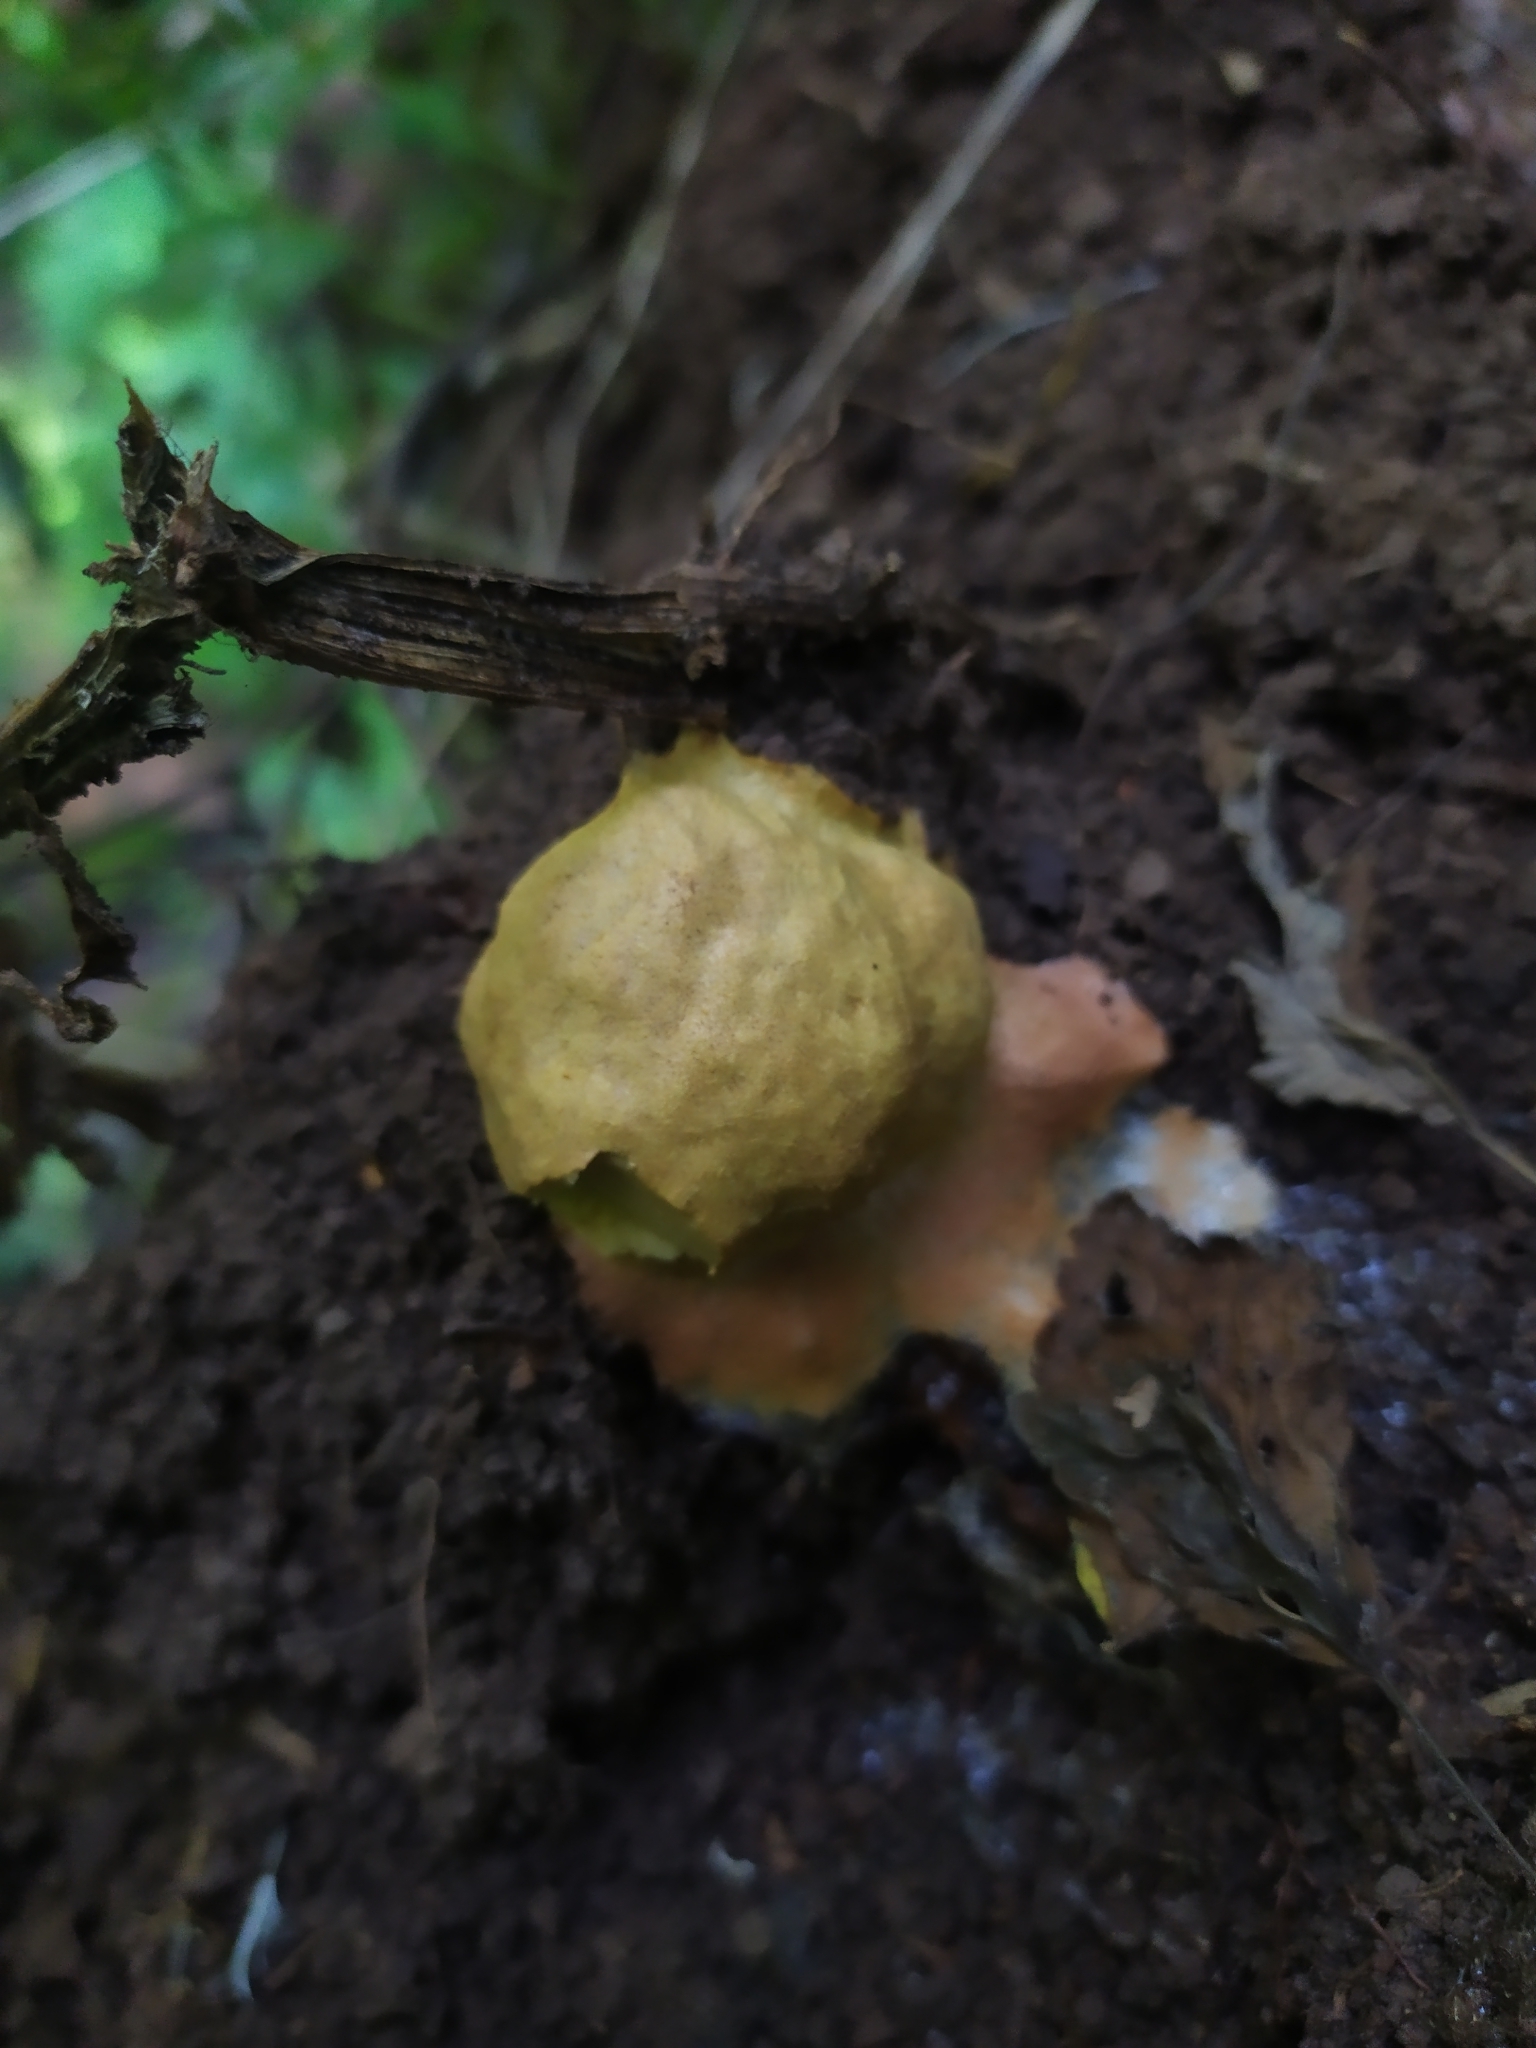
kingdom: Protozoa
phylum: Mycetozoa
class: Myxomycetes
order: Physarales
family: Physaraceae
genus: Fuligo
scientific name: Fuligo leviderma
